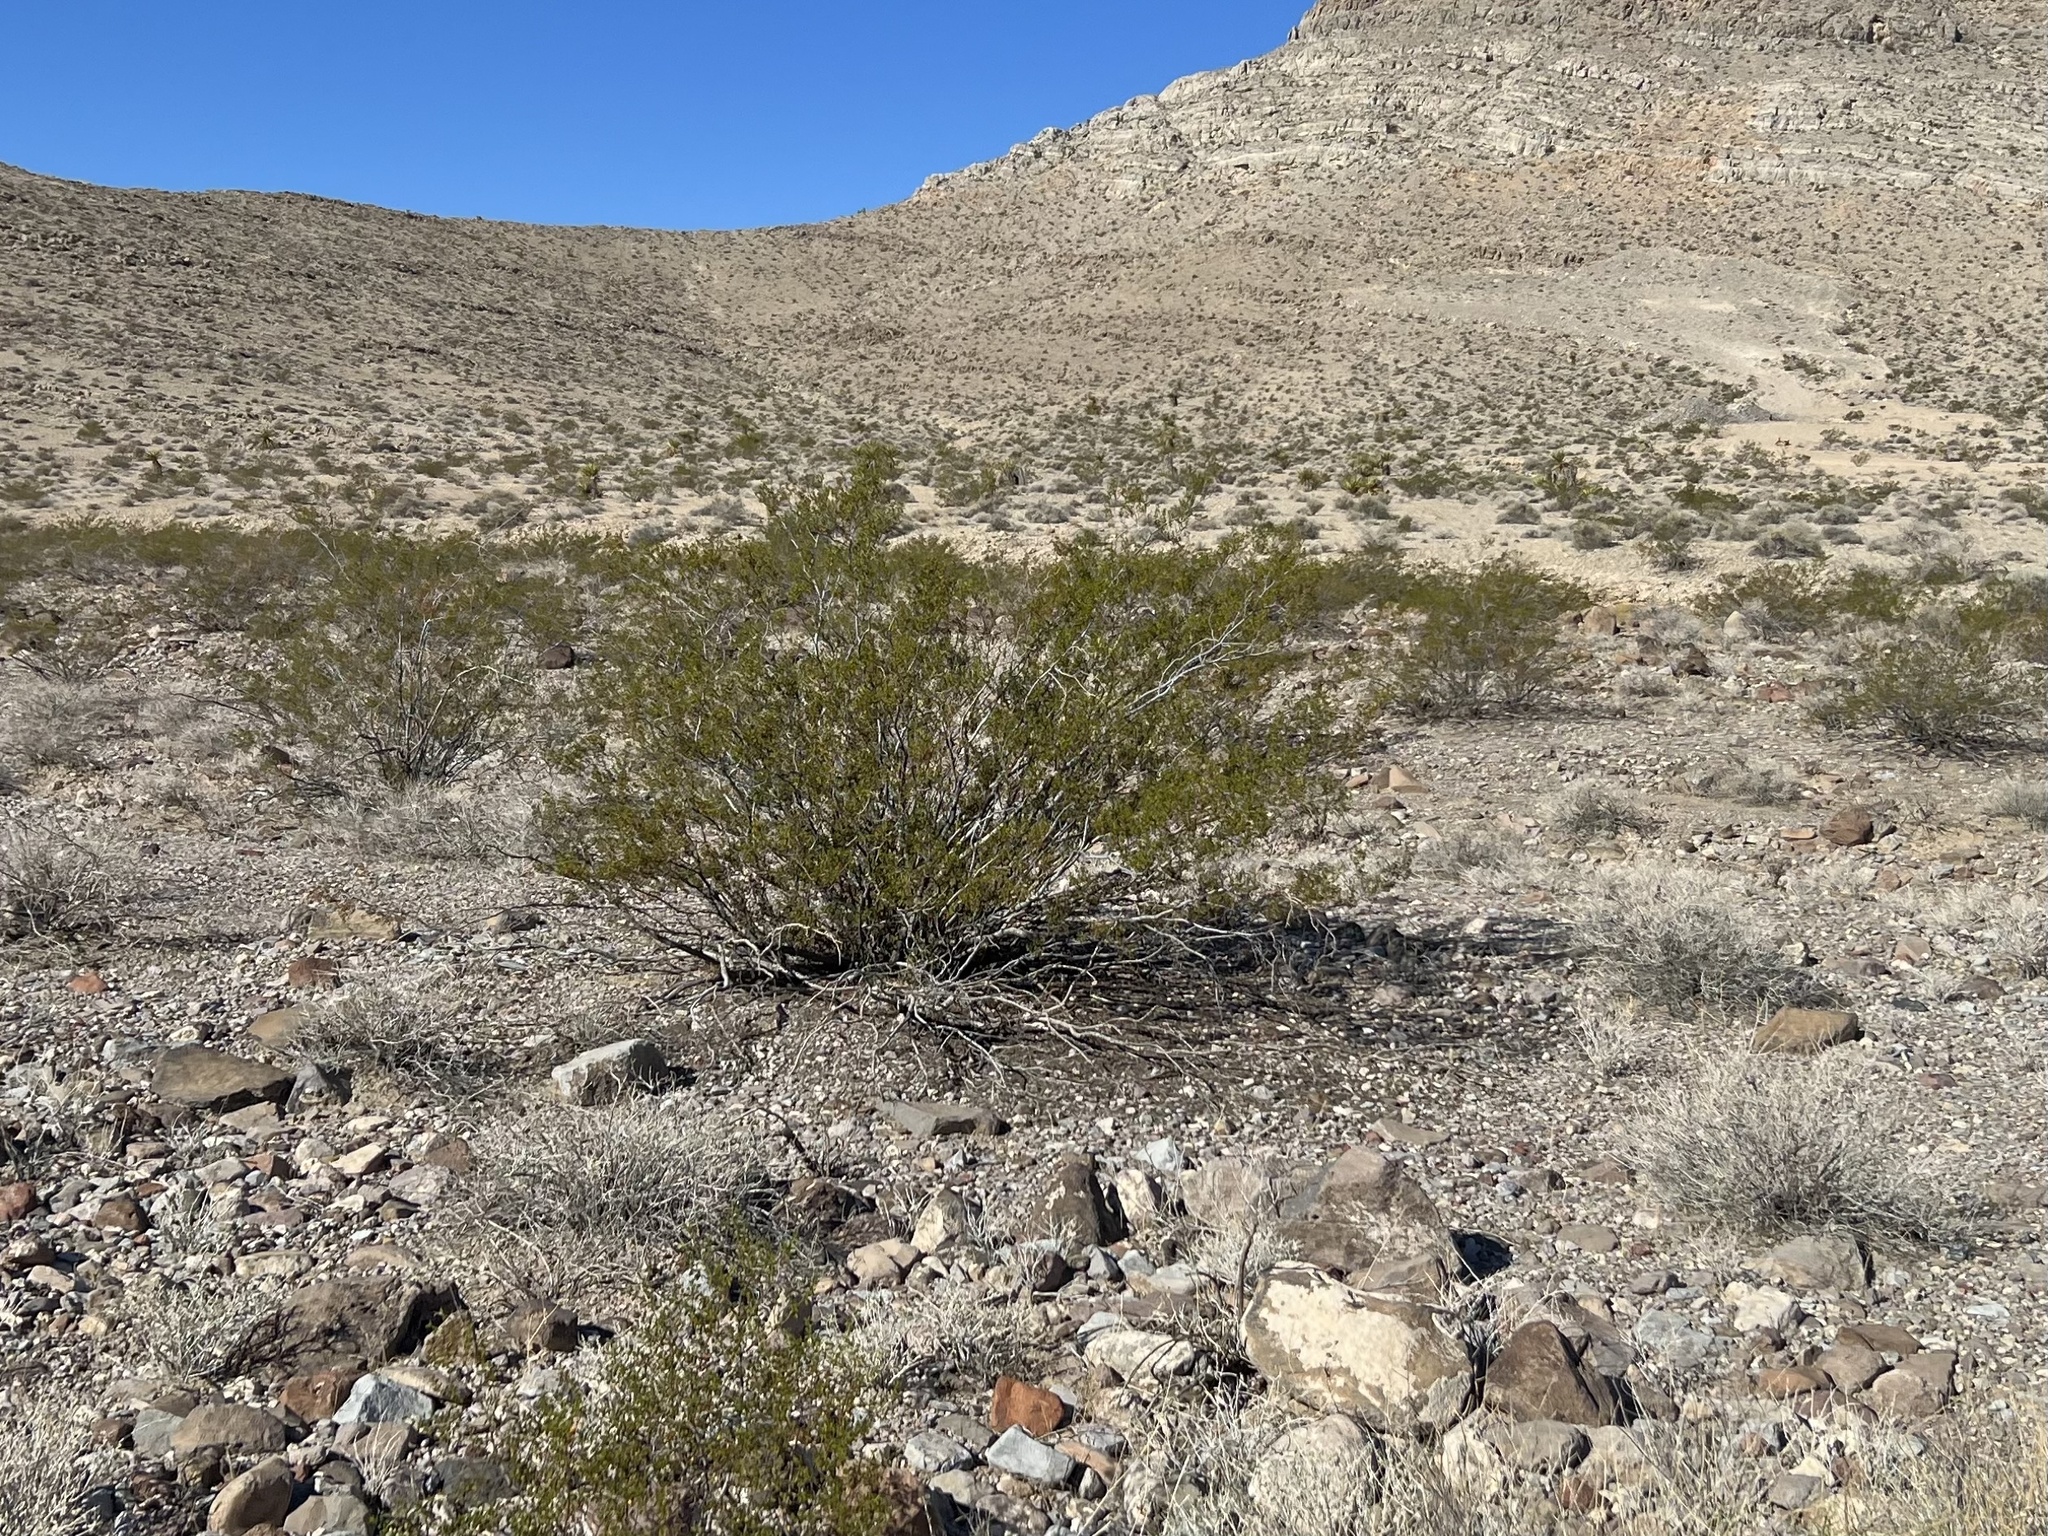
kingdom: Plantae
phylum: Tracheophyta
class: Magnoliopsida
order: Zygophyllales
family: Zygophyllaceae
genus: Larrea
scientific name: Larrea tridentata
